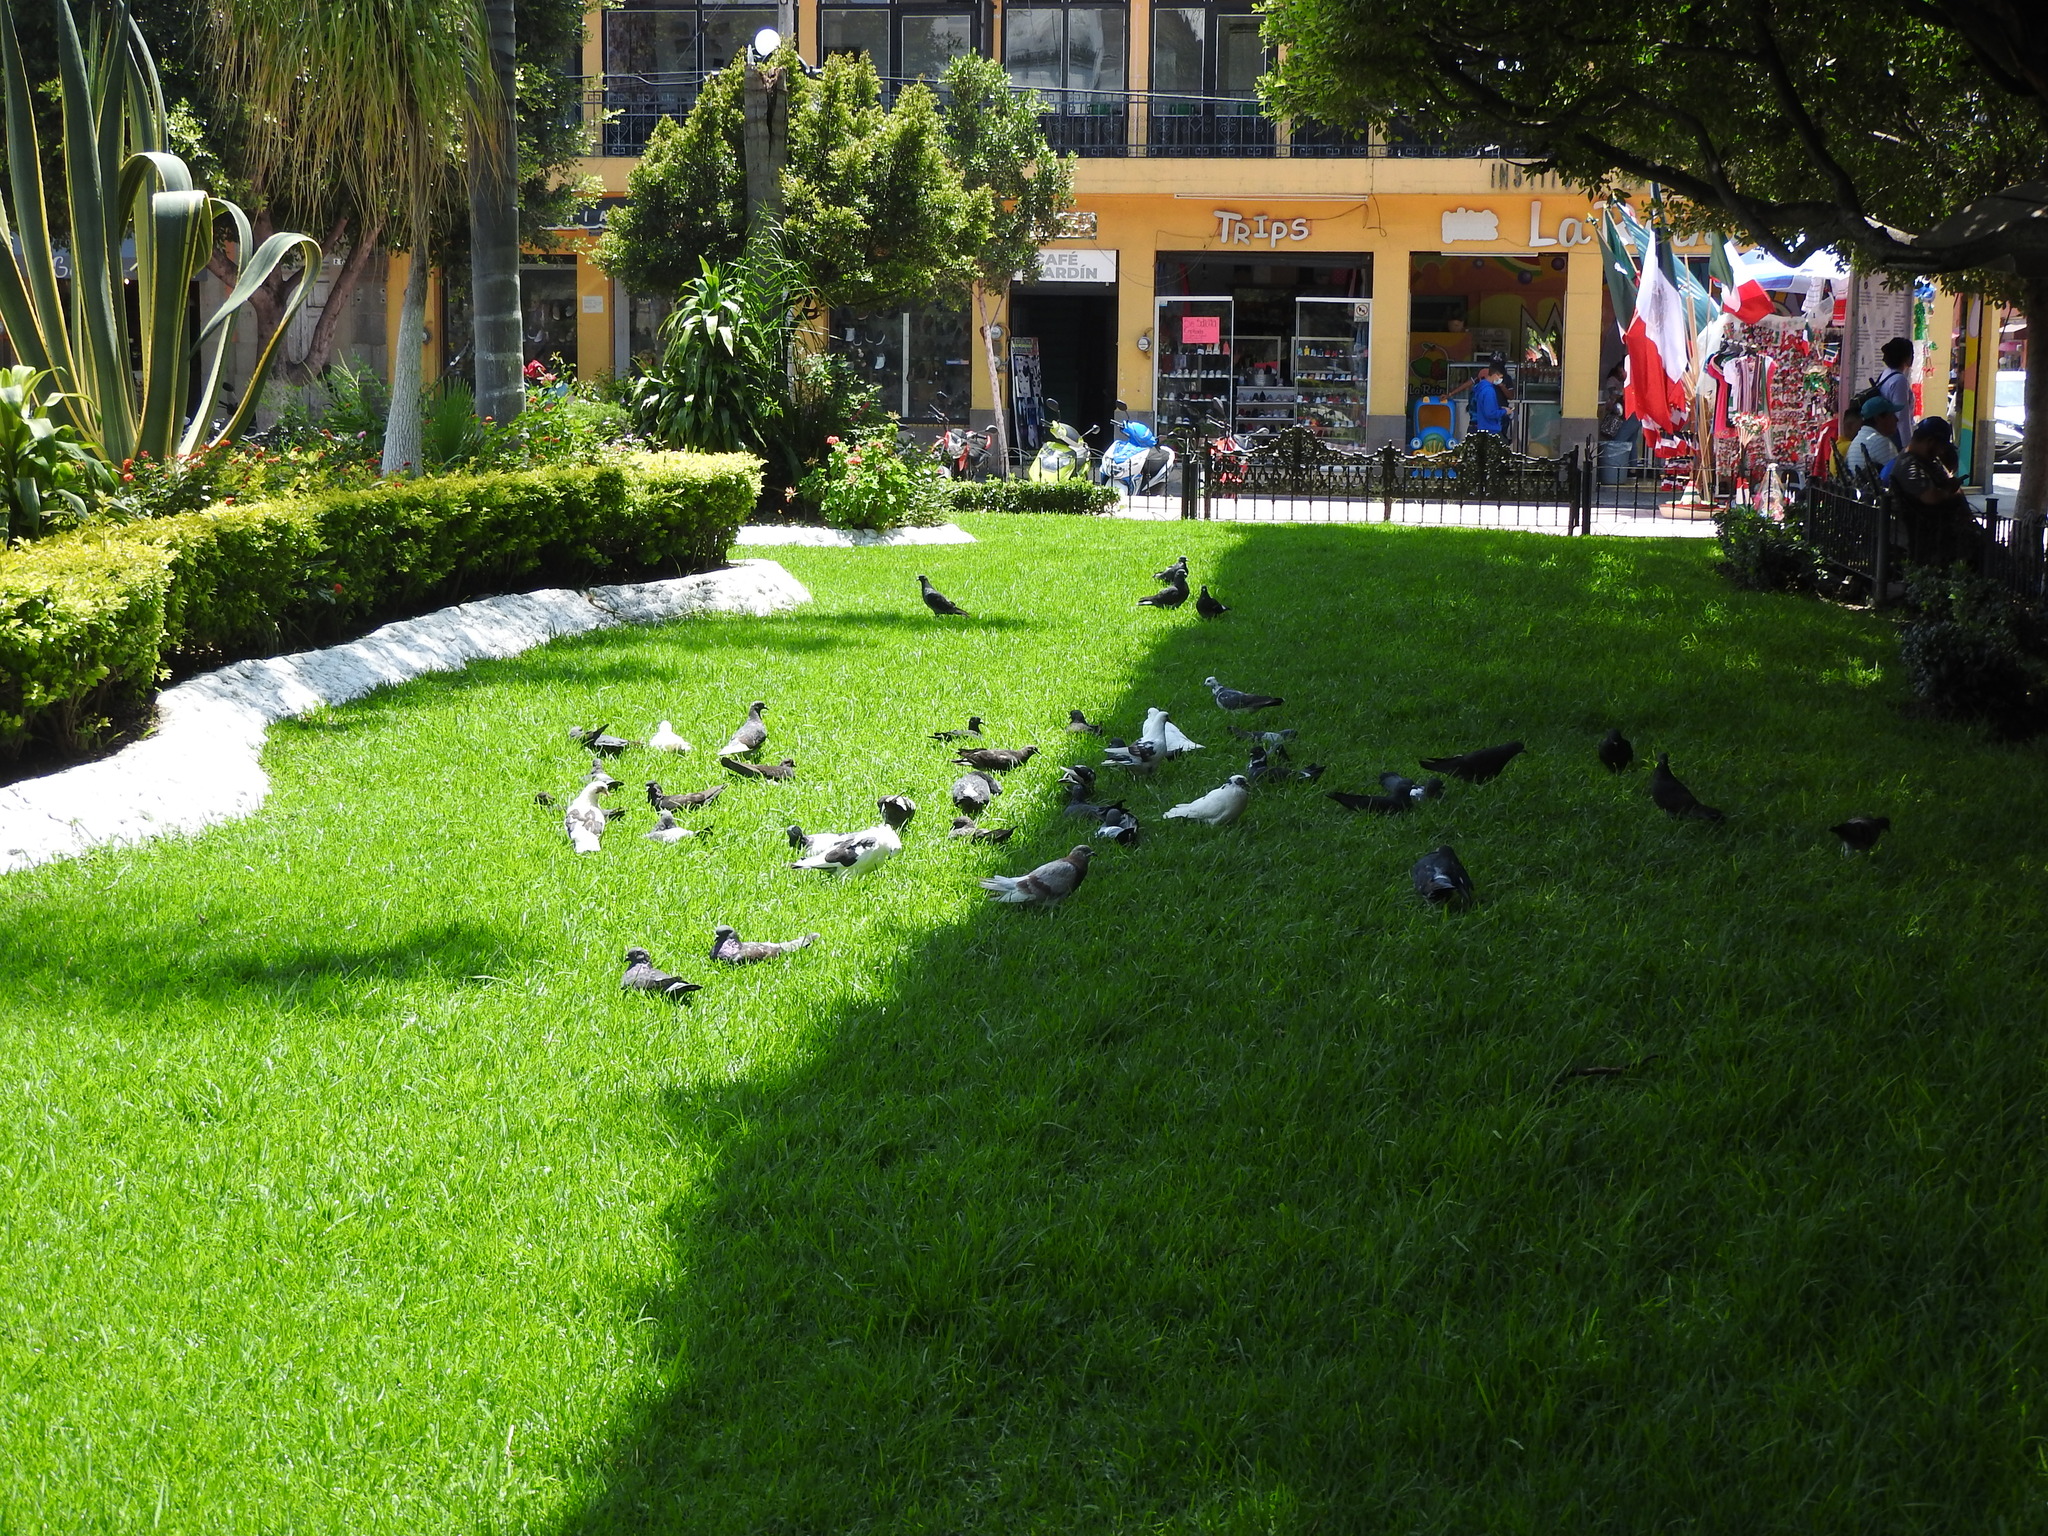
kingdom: Animalia
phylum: Chordata
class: Aves
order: Columbiformes
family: Columbidae
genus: Columba
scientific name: Columba livia
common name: Rock pigeon
